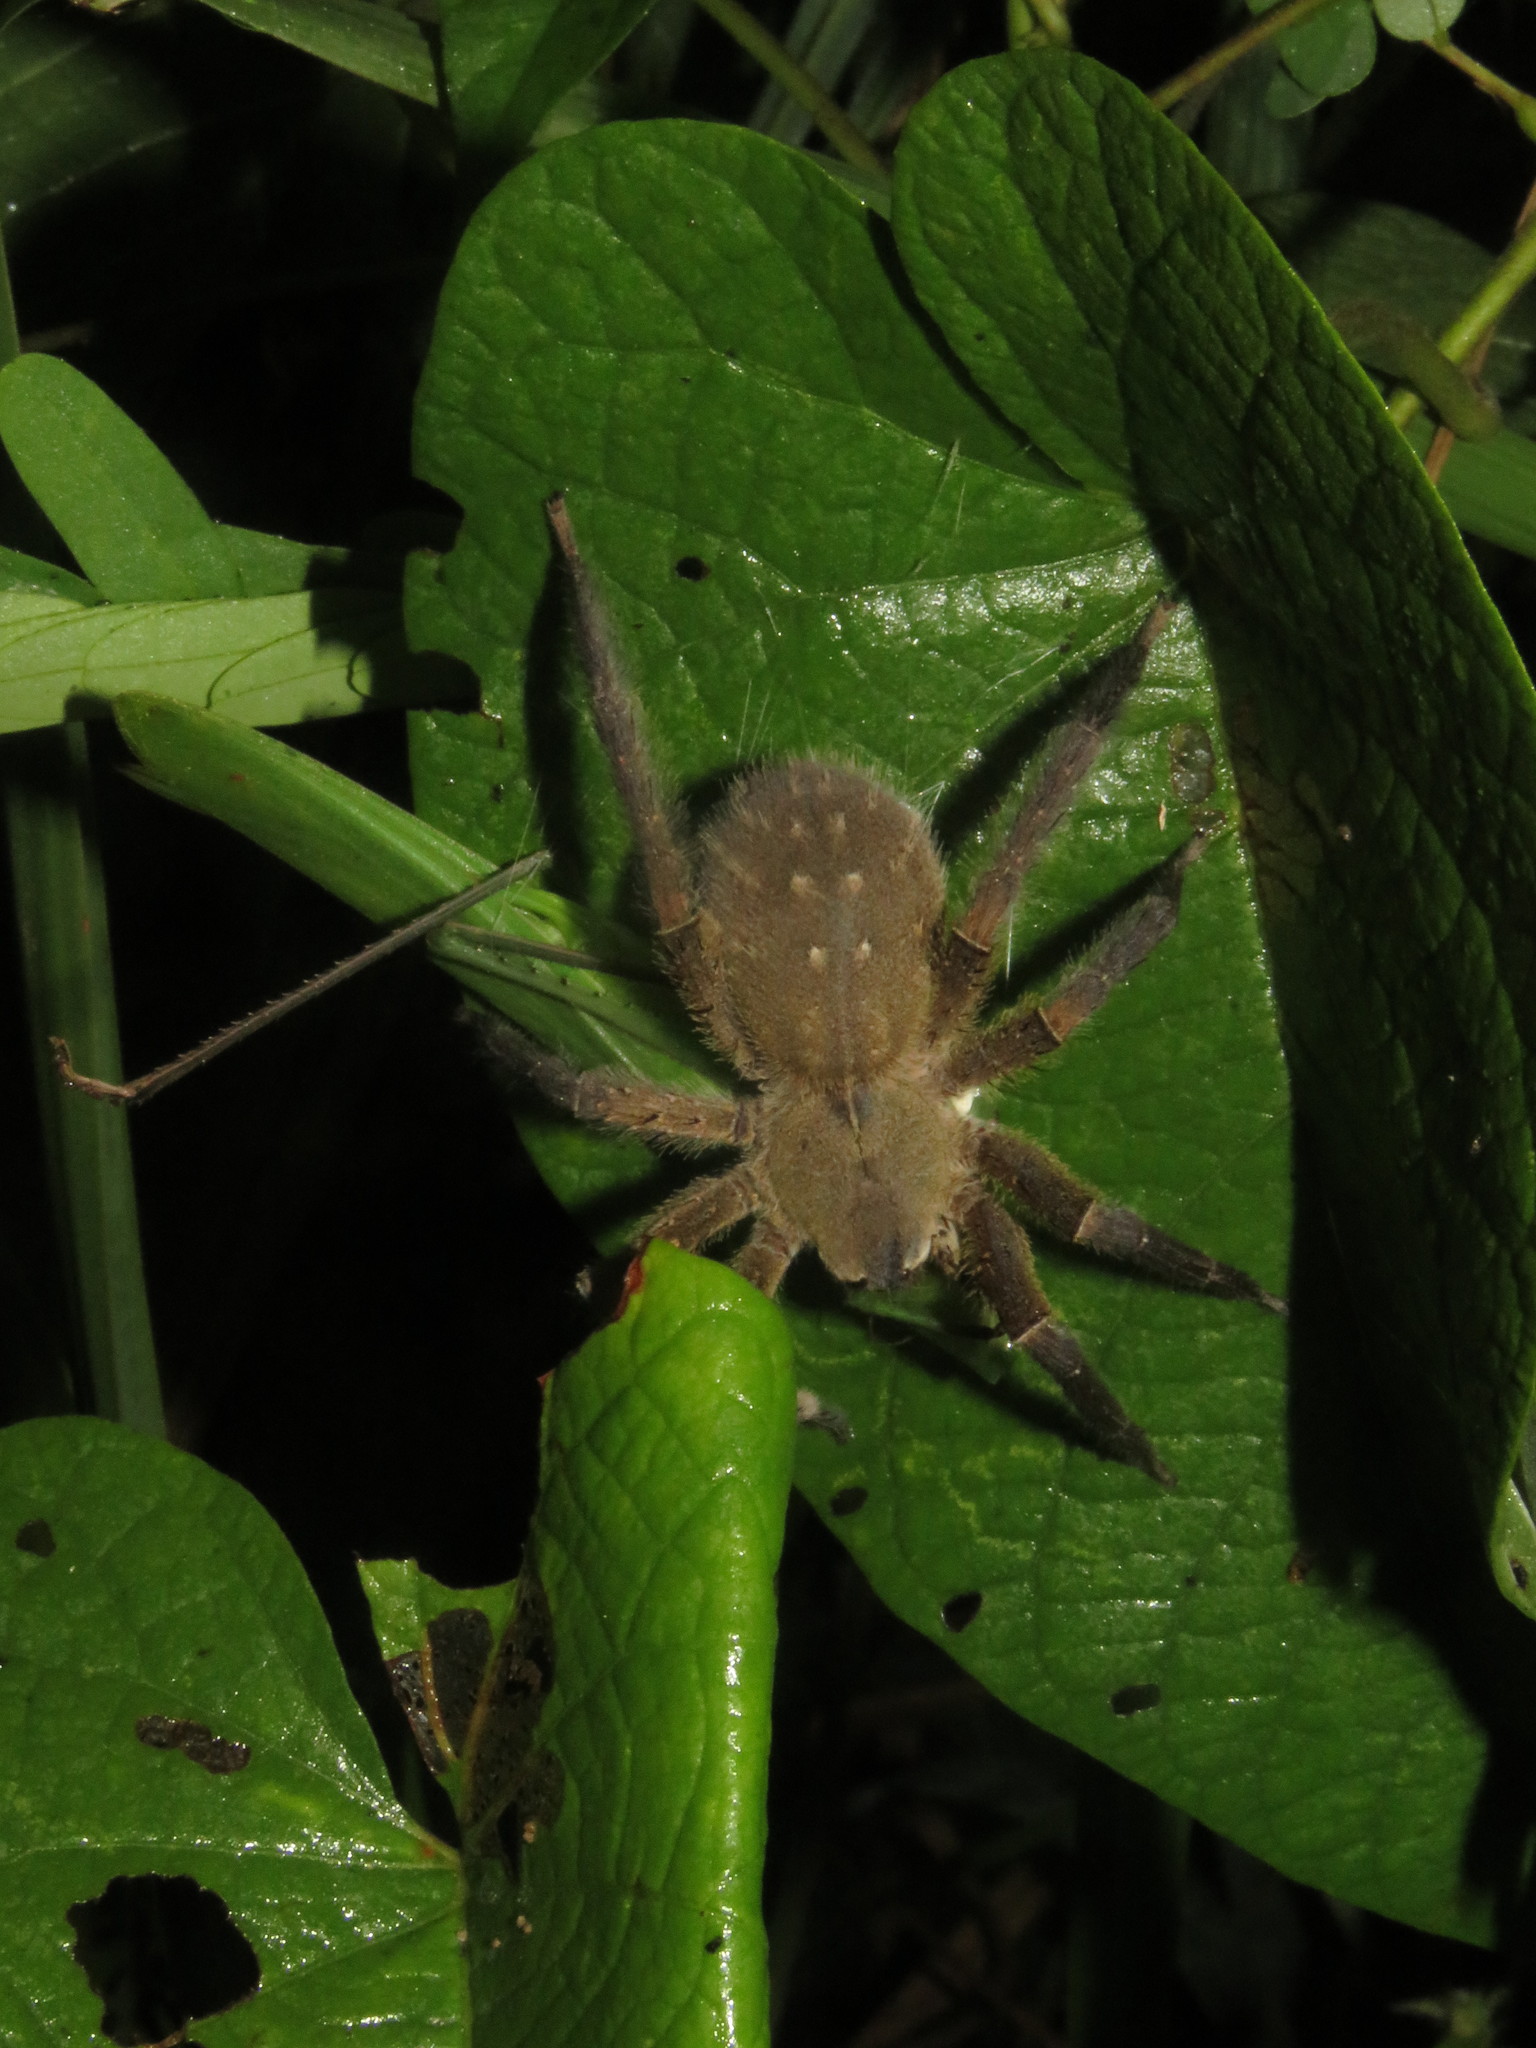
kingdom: Animalia
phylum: Arthropoda
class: Arachnida
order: Araneae
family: Ctenidae
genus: Phoneutria
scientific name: Phoneutria boliviensis
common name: Wandering spiders
